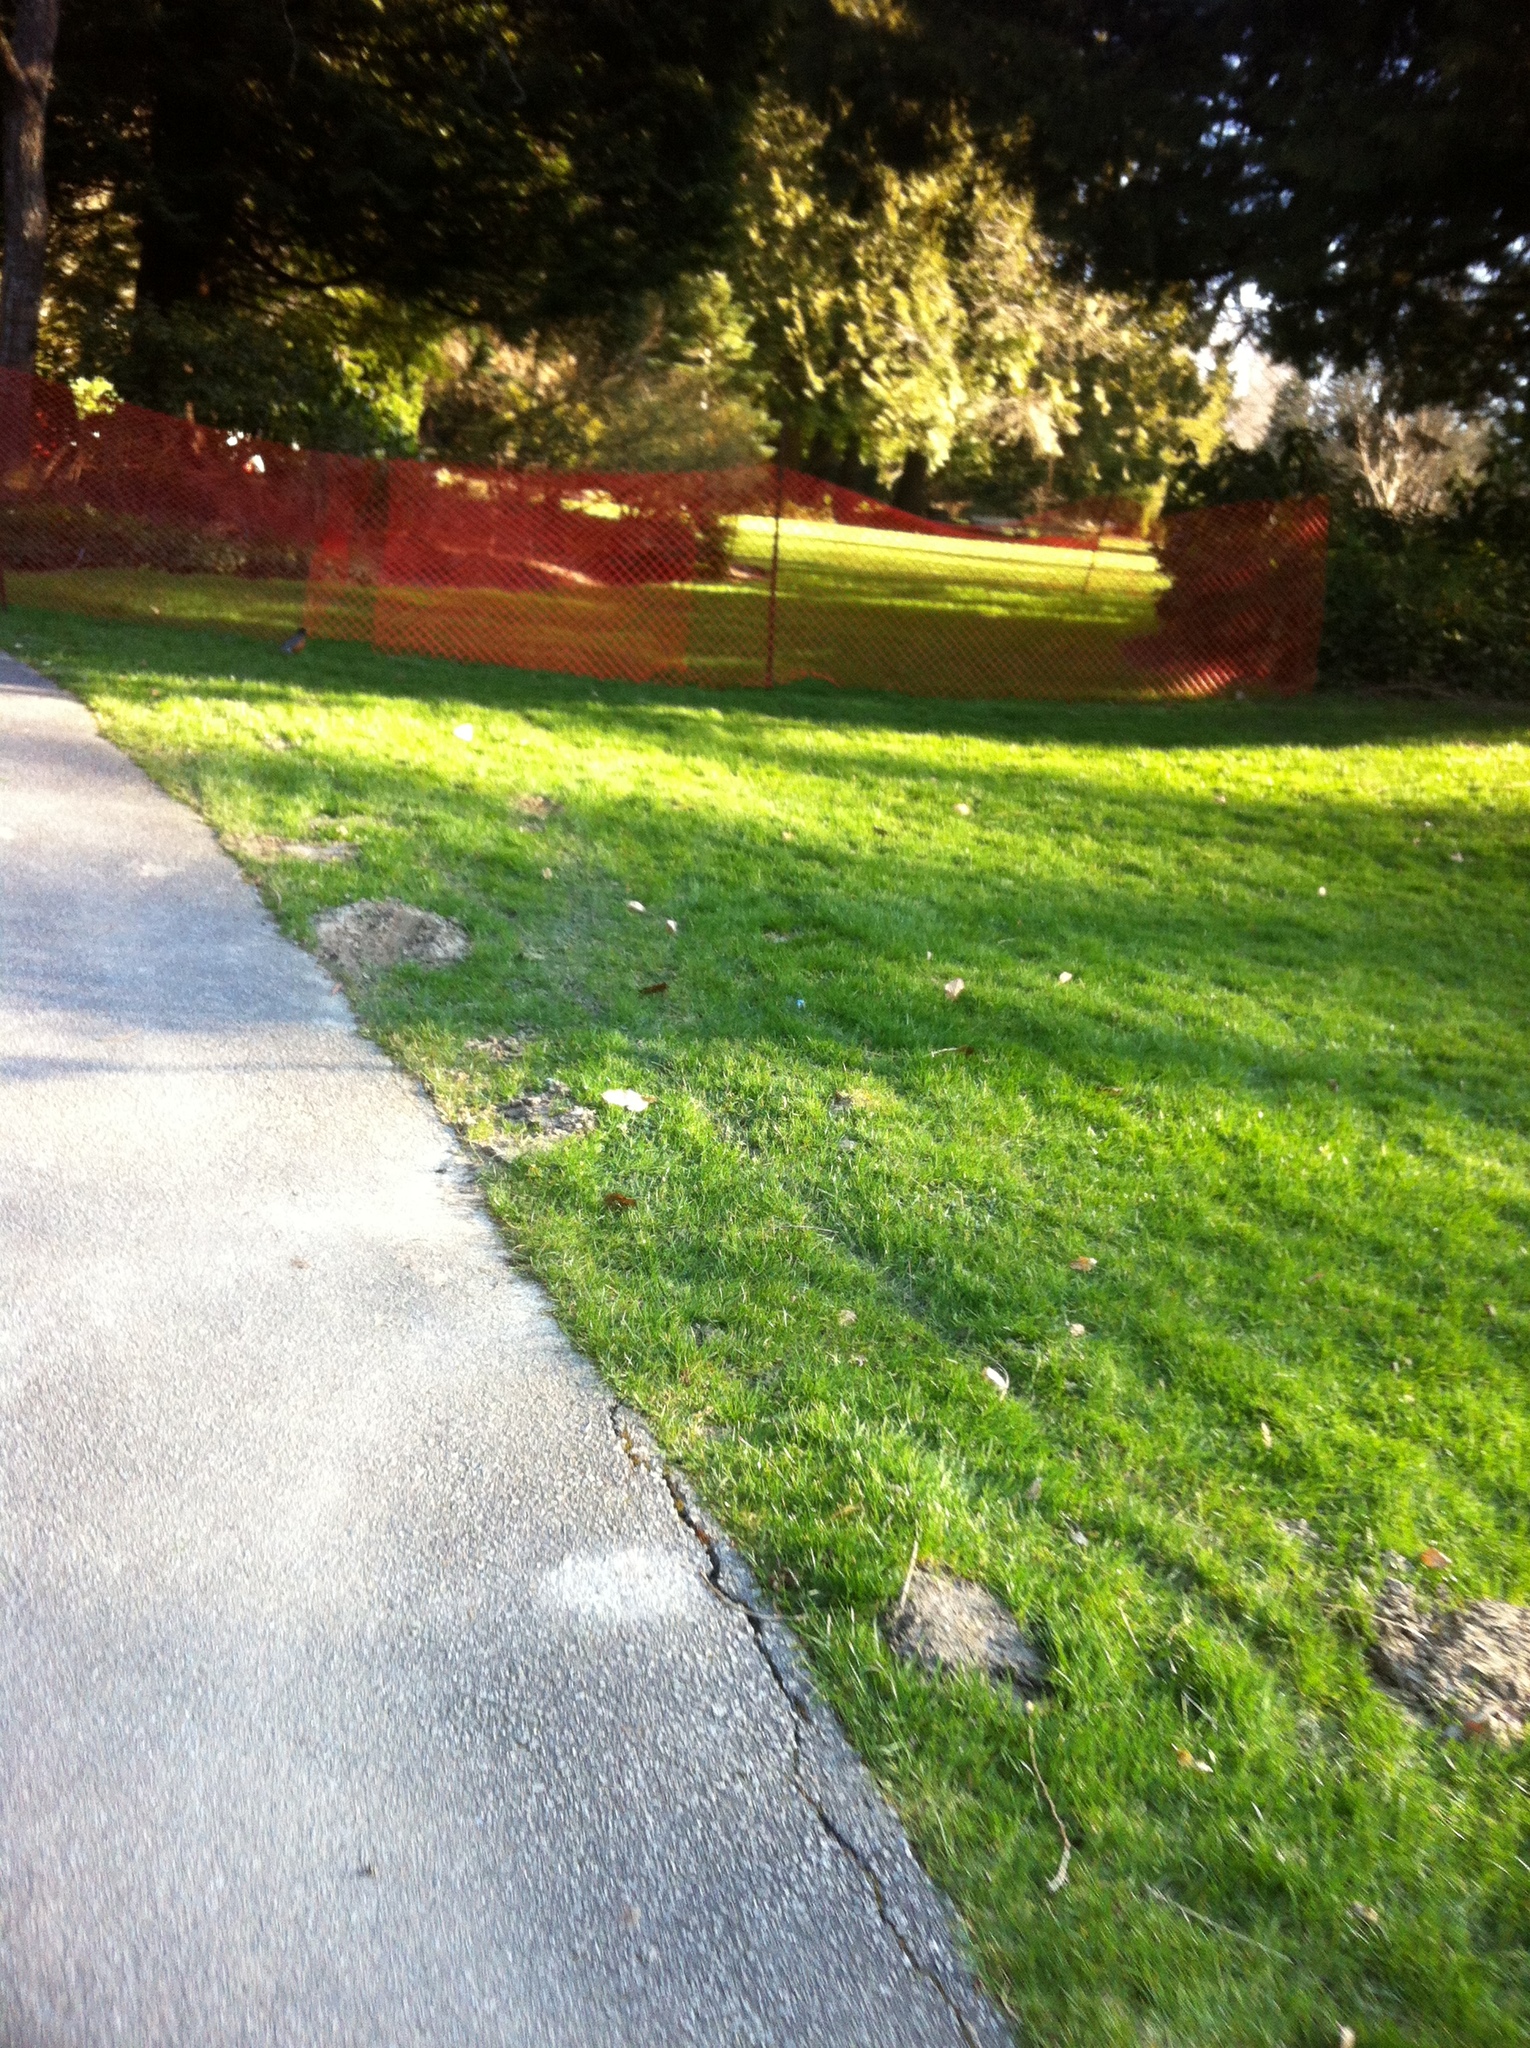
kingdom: Animalia
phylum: Chordata
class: Aves
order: Passeriformes
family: Turdidae
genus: Turdus
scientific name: Turdus migratorius
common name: American robin
